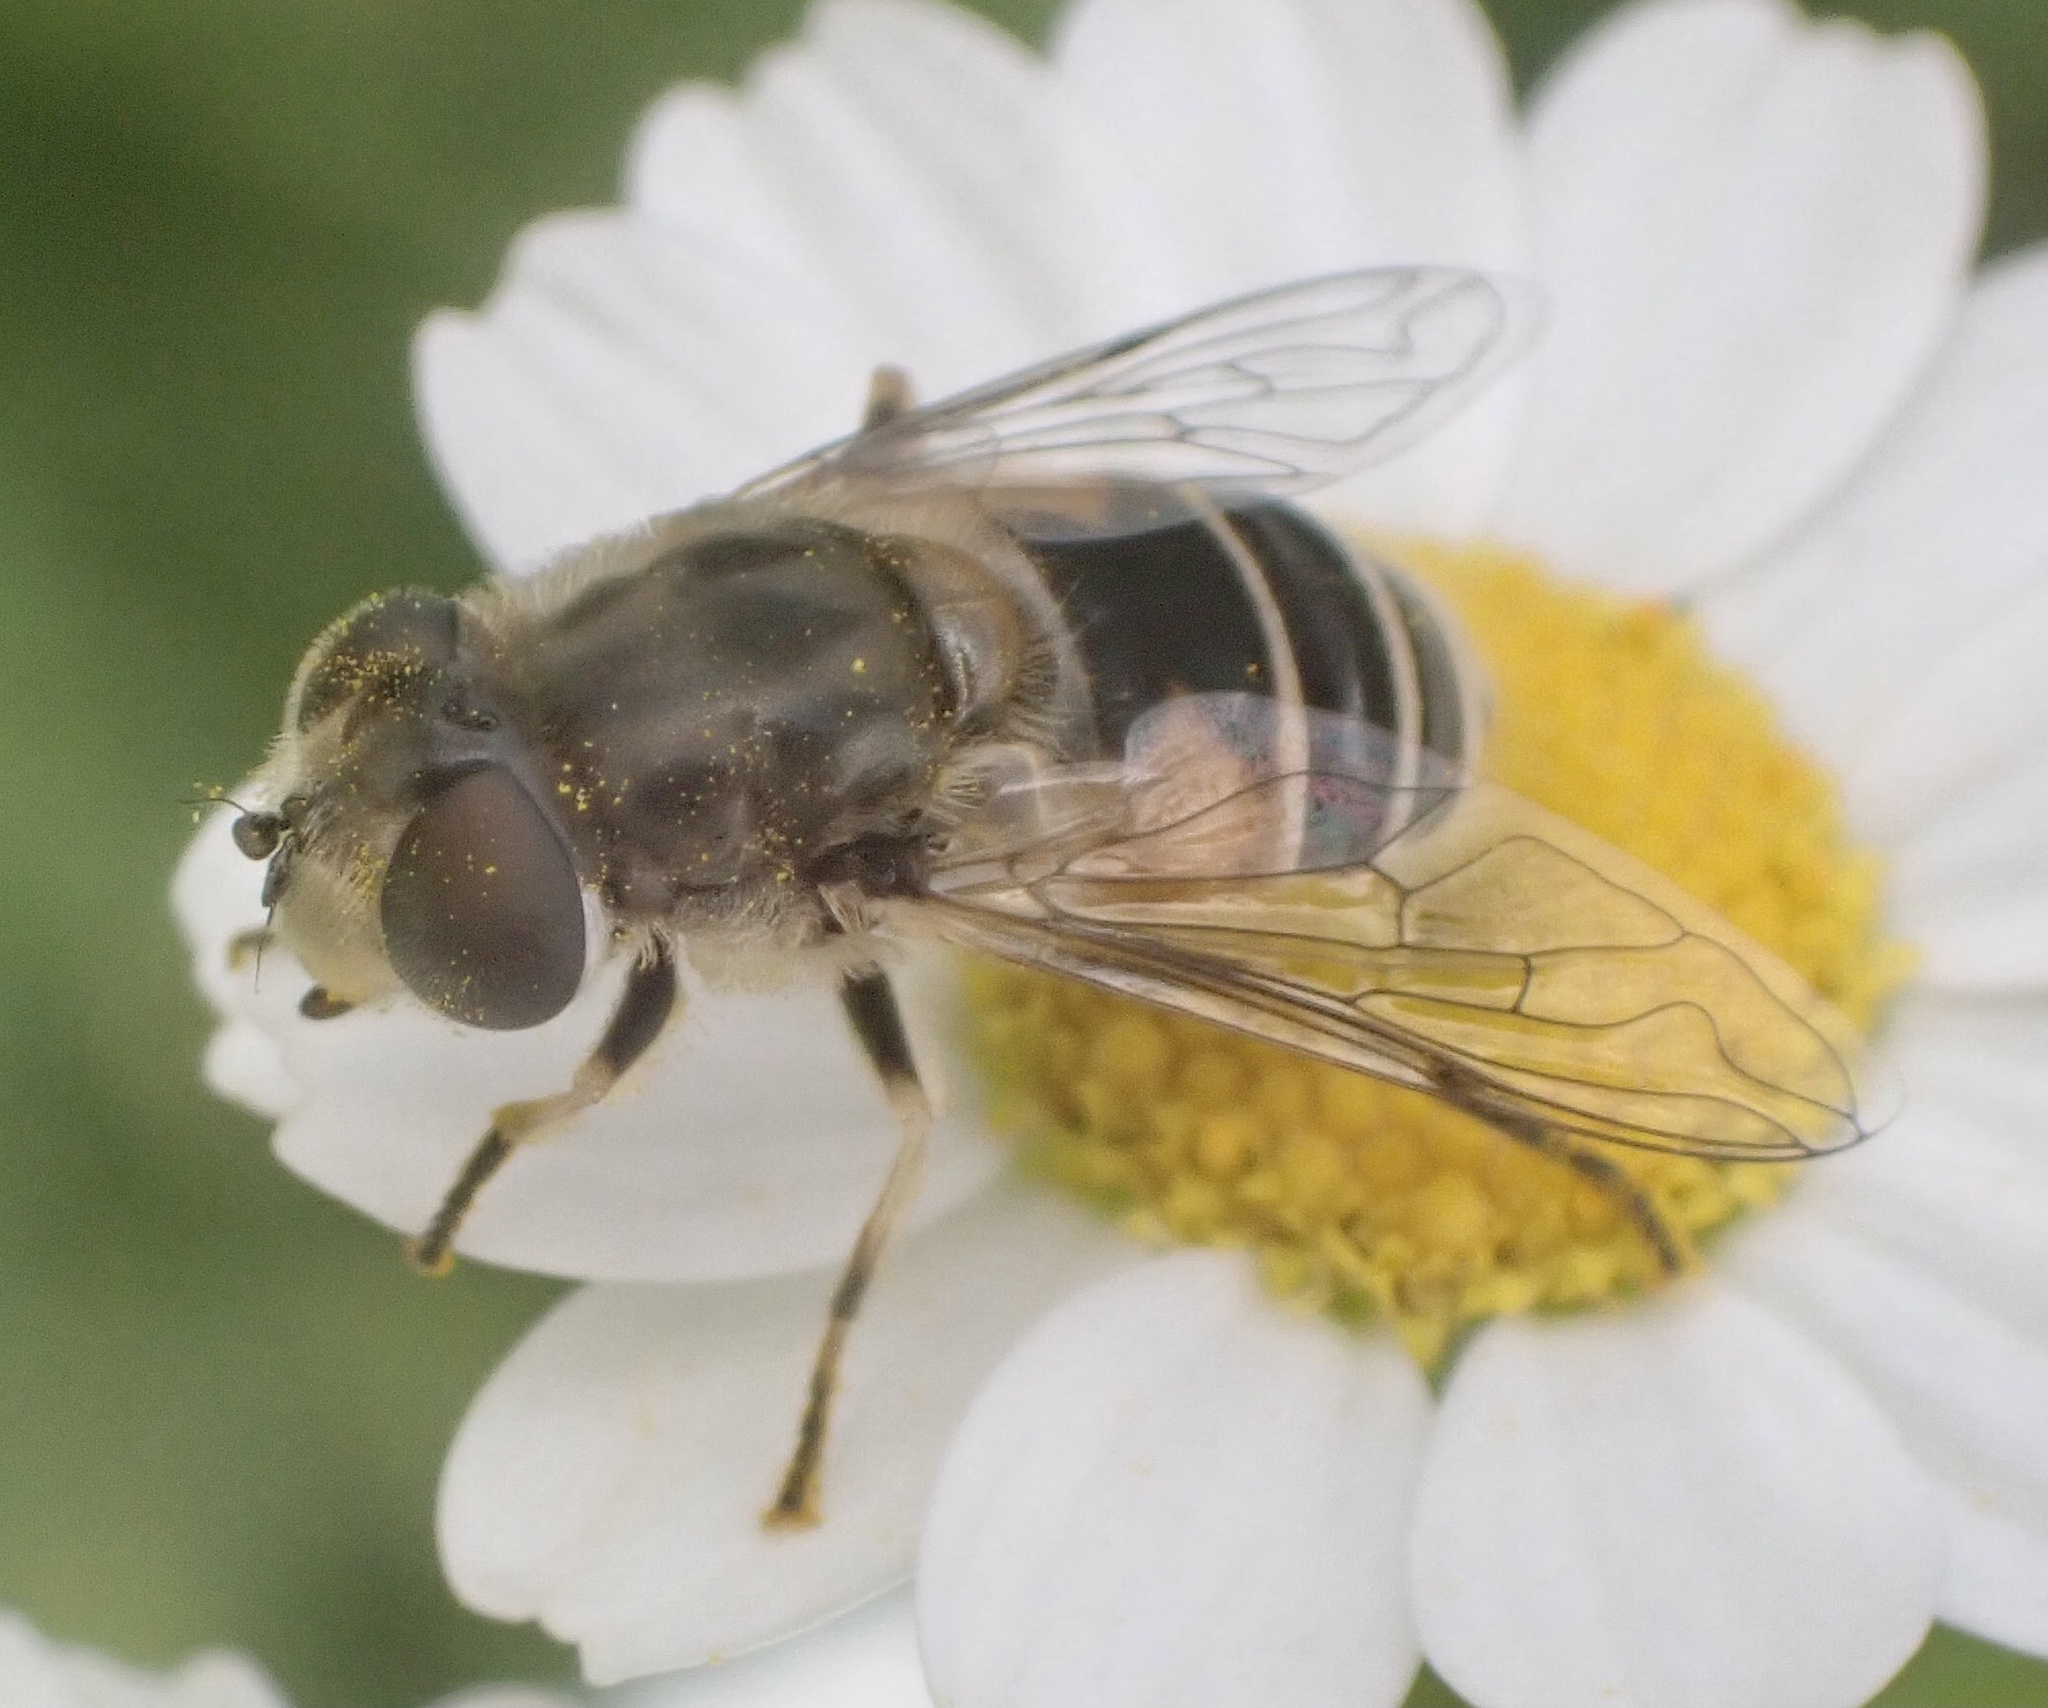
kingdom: Animalia
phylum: Arthropoda
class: Insecta
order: Diptera
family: Syrphidae
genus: Eristalis
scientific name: Eristalis arbustorum
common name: Hover fly
